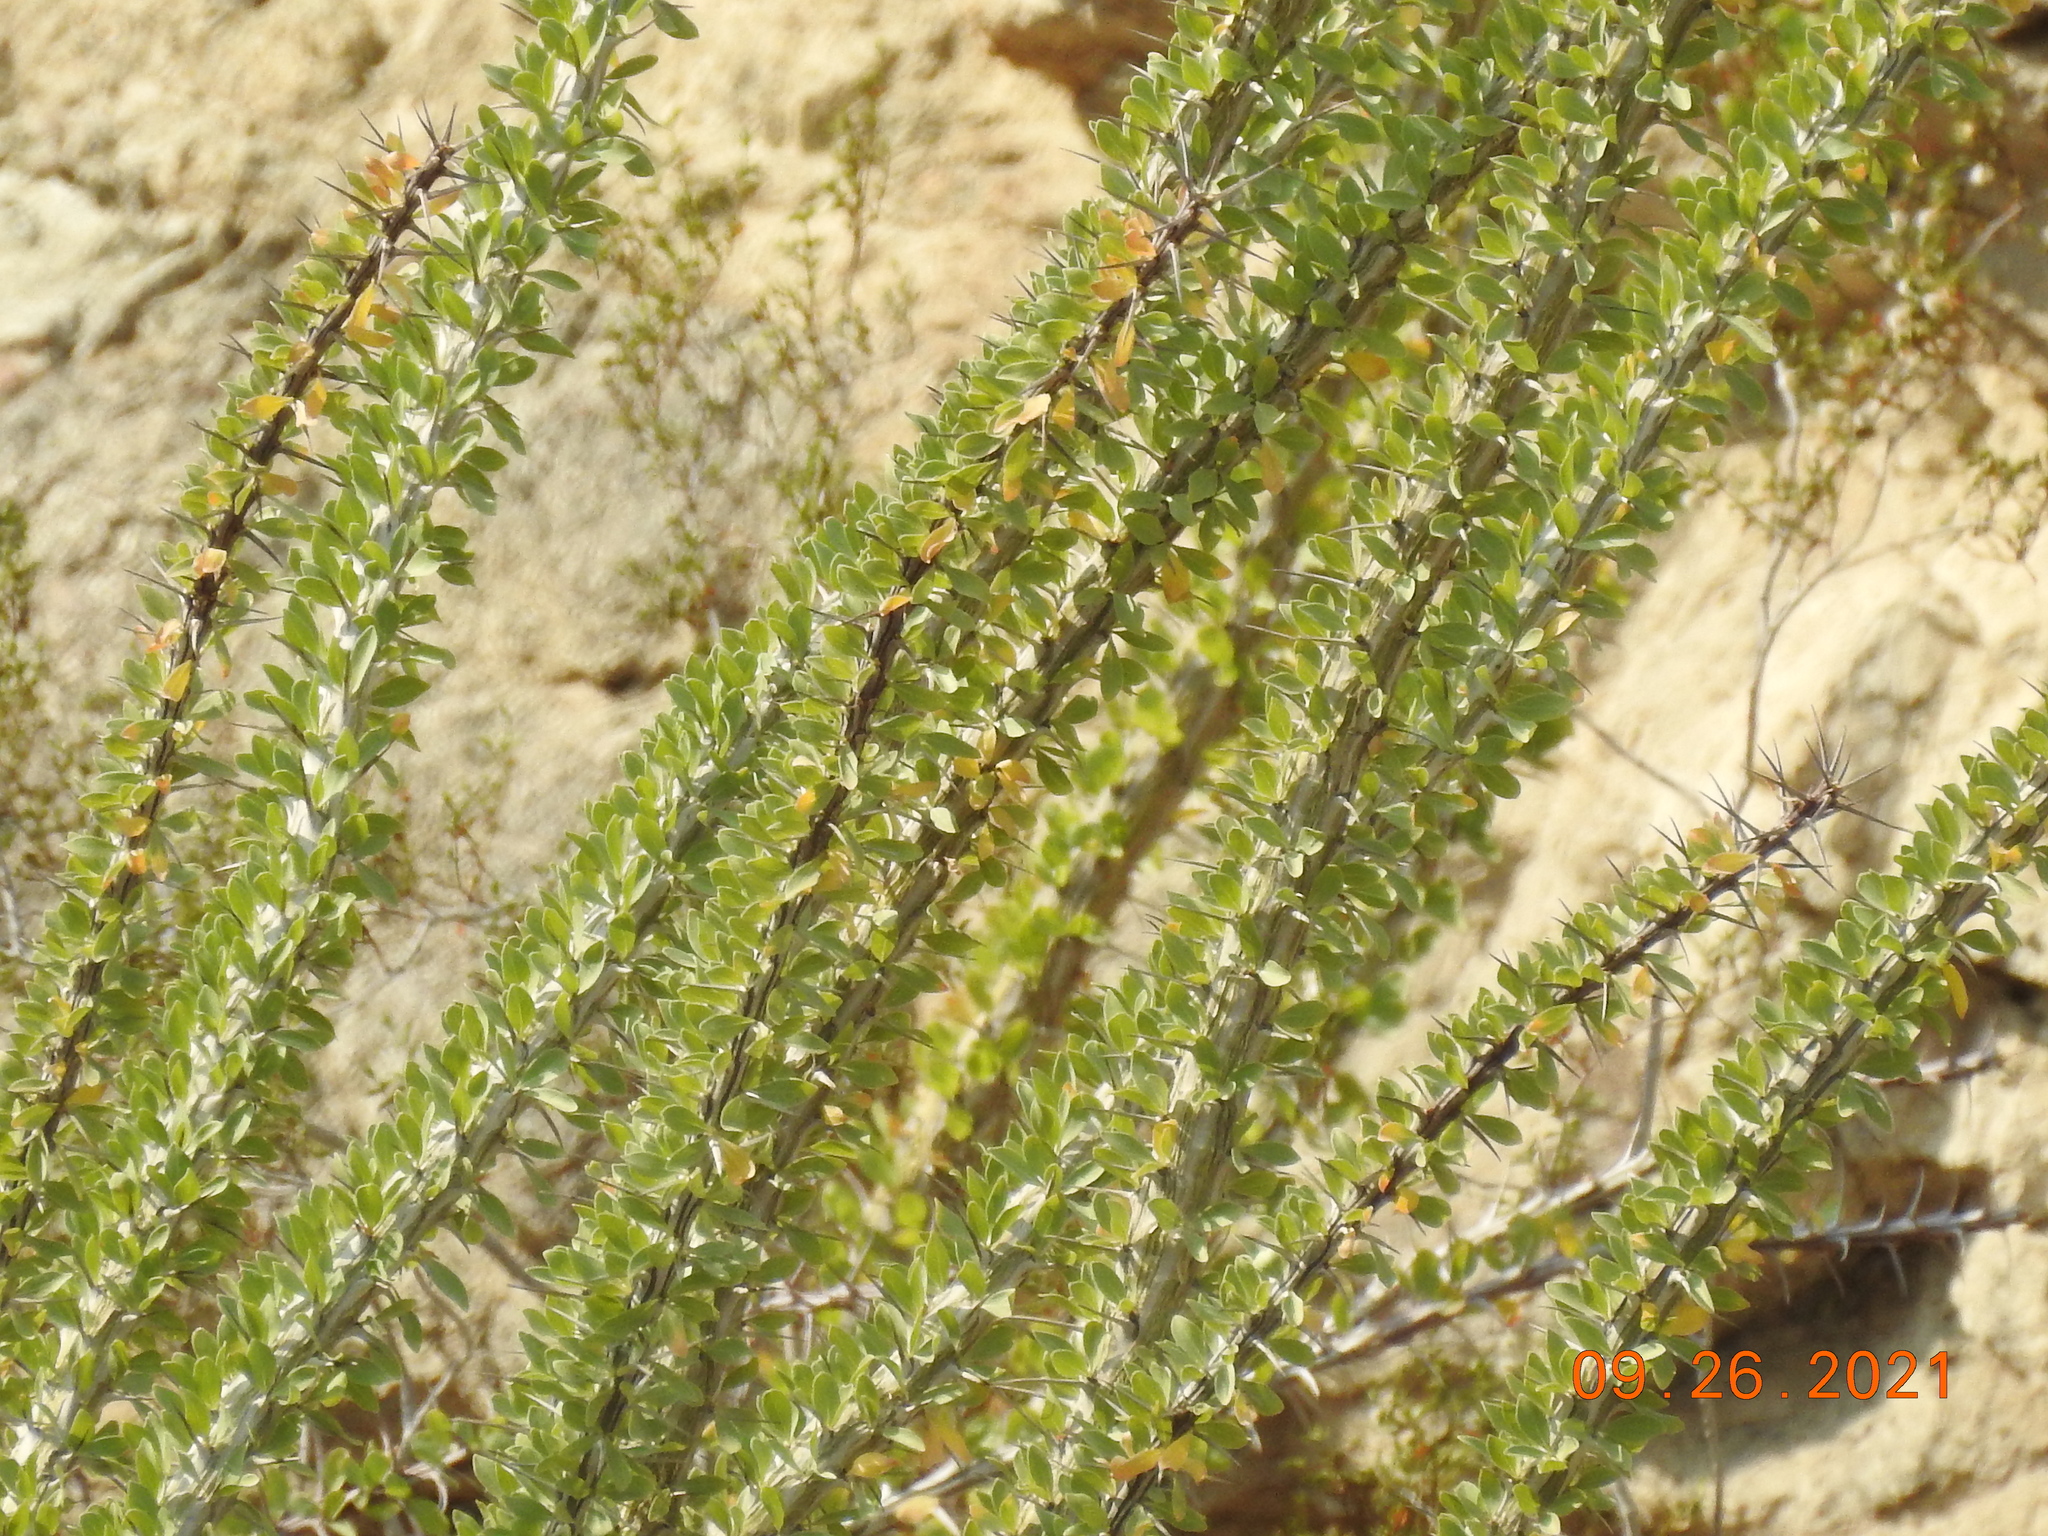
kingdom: Plantae
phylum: Tracheophyta
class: Magnoliopsida
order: Ericales
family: Fouquieriaceae
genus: Fouquieria
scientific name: Fouquieria splendens
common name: Vine-cactus
